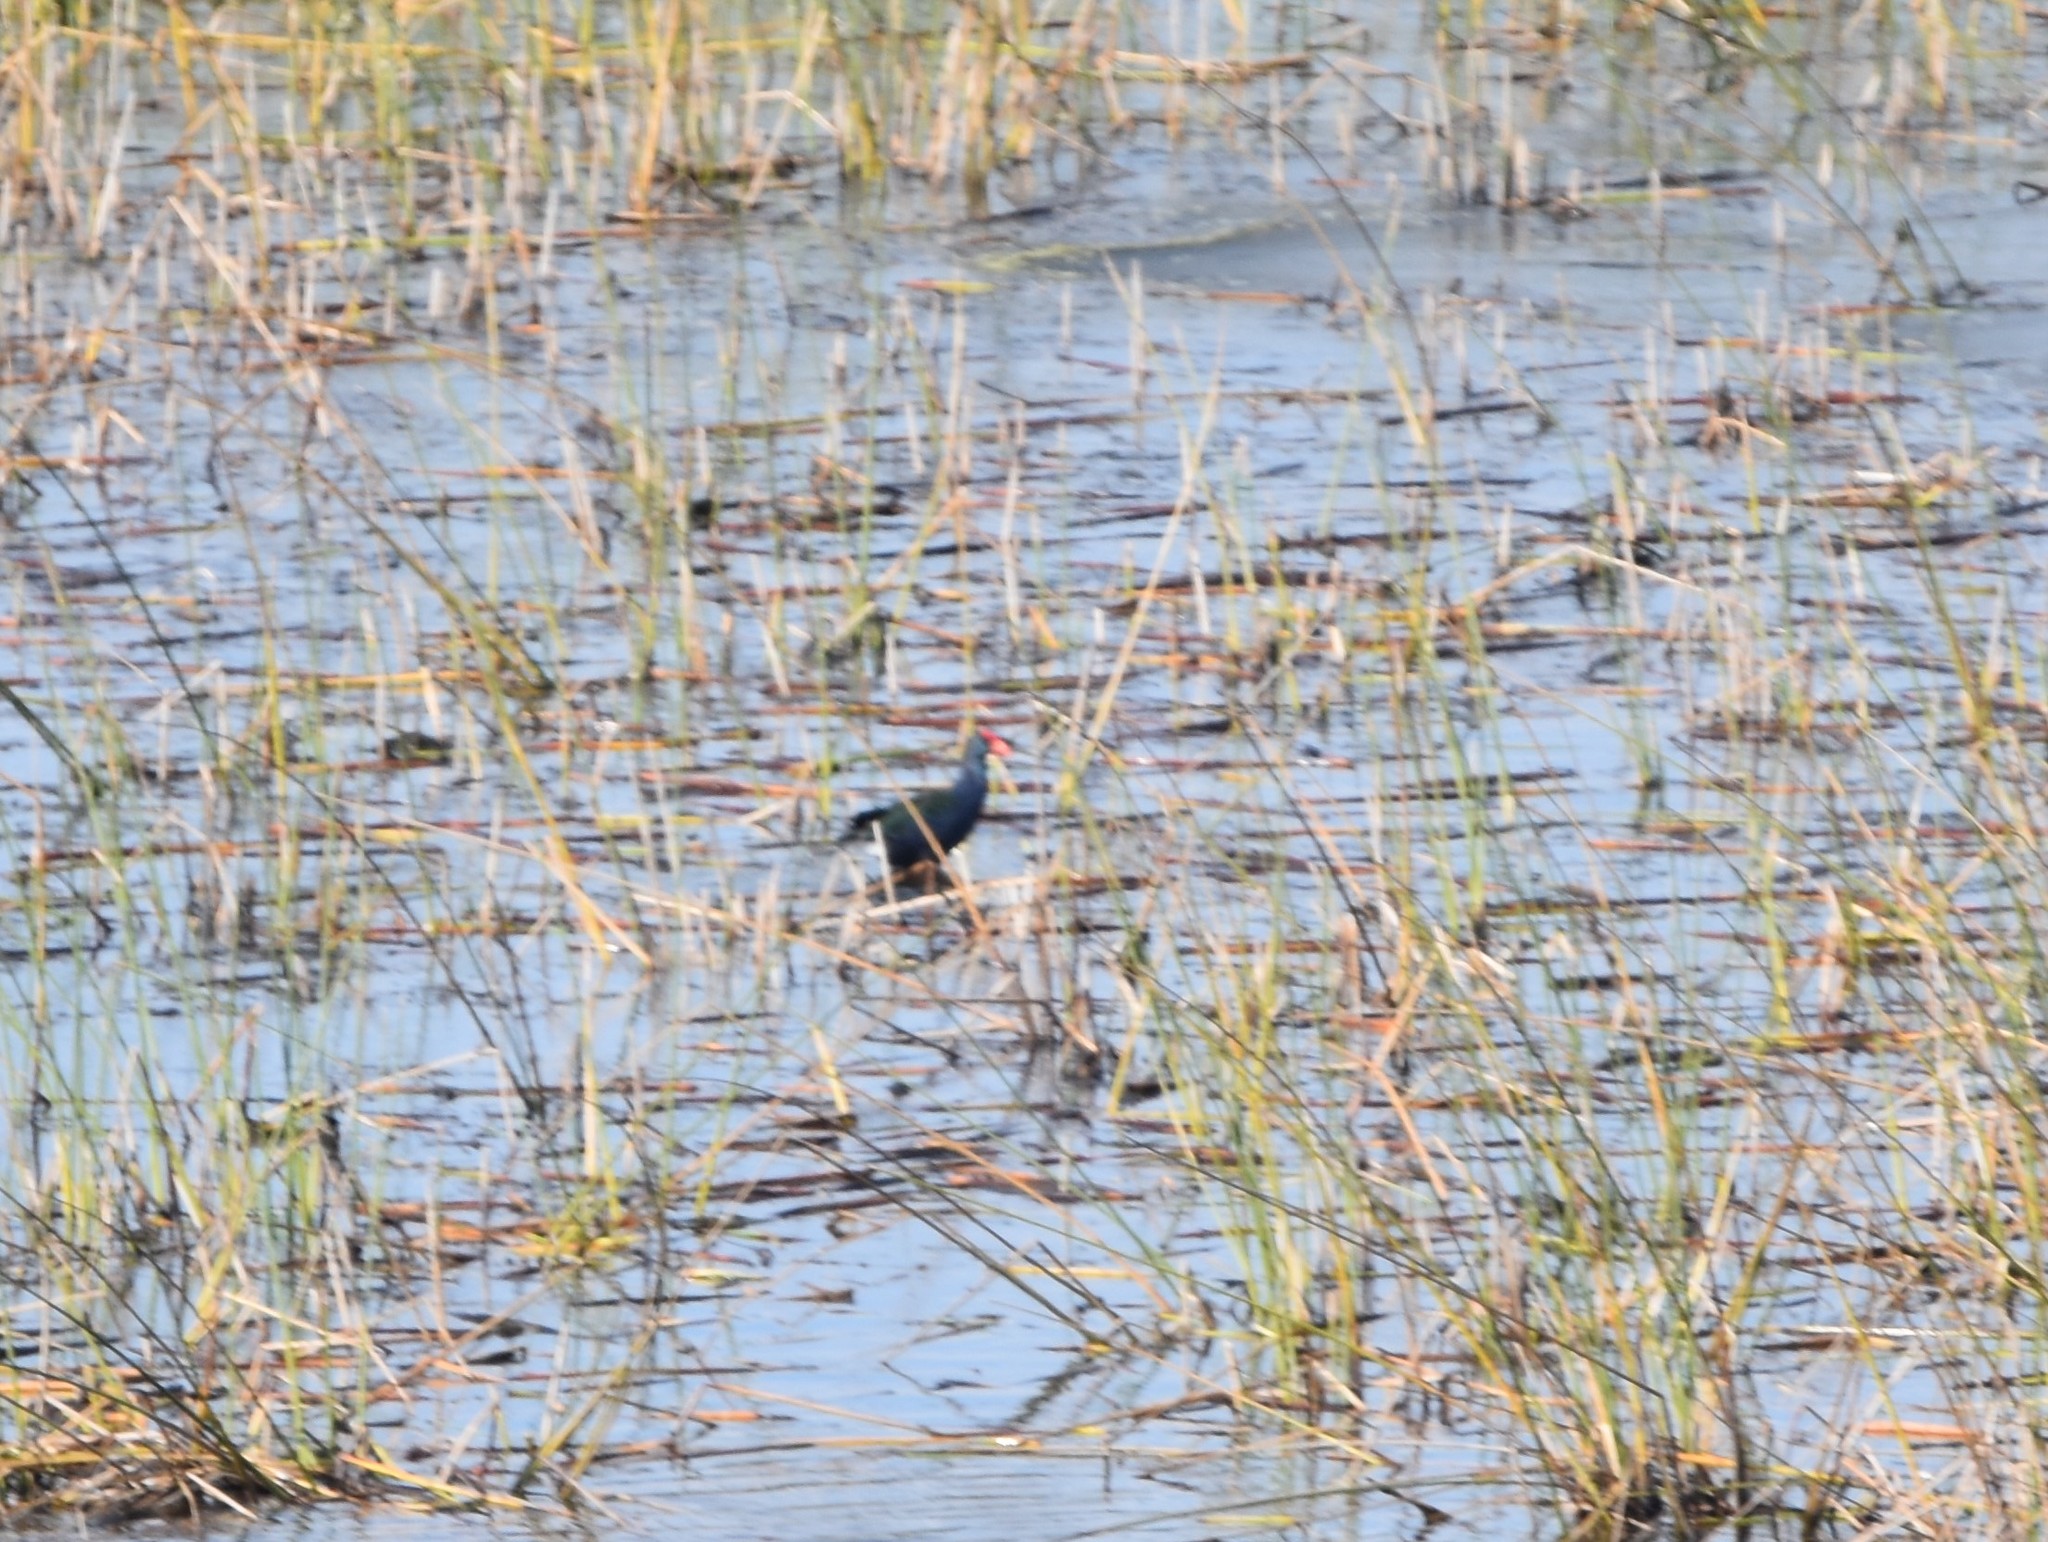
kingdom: Animalia
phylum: Chordata
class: Aves
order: Gruiformes
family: Rallidae
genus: Porphyrio
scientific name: Porphyrio porphyrio
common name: Purple swamphen
